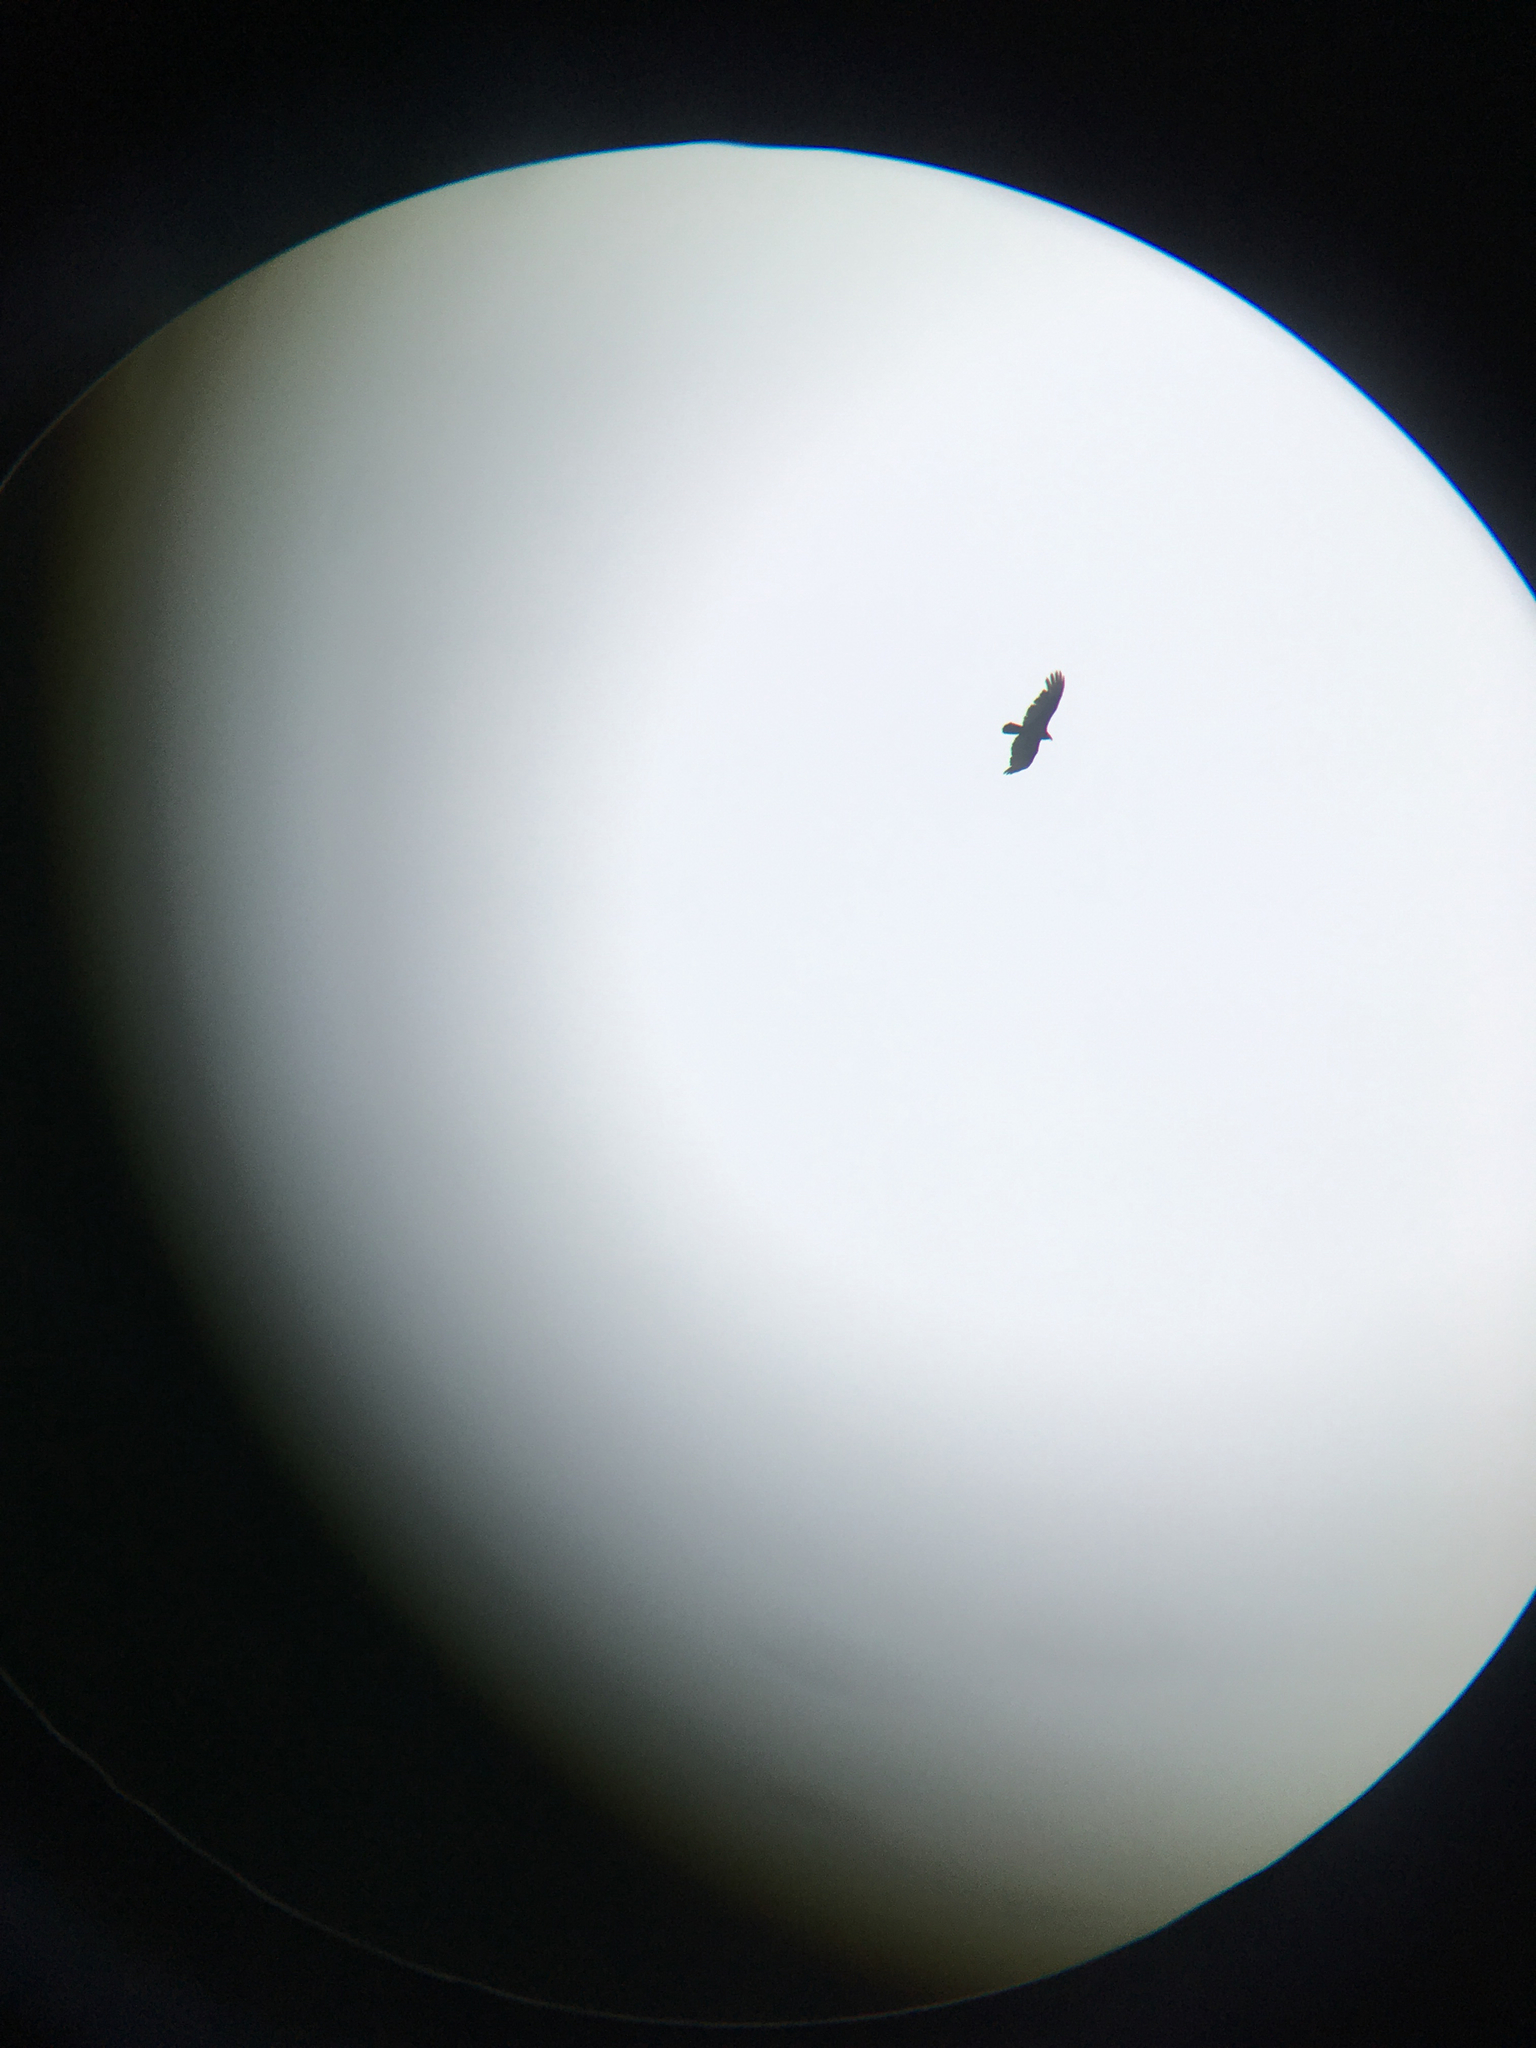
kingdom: Animalia
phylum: Chordata
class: Aves
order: Accipitriformes
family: Cathartidae
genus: Cathartes
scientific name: Cathartes aura
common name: Turkey vulture
